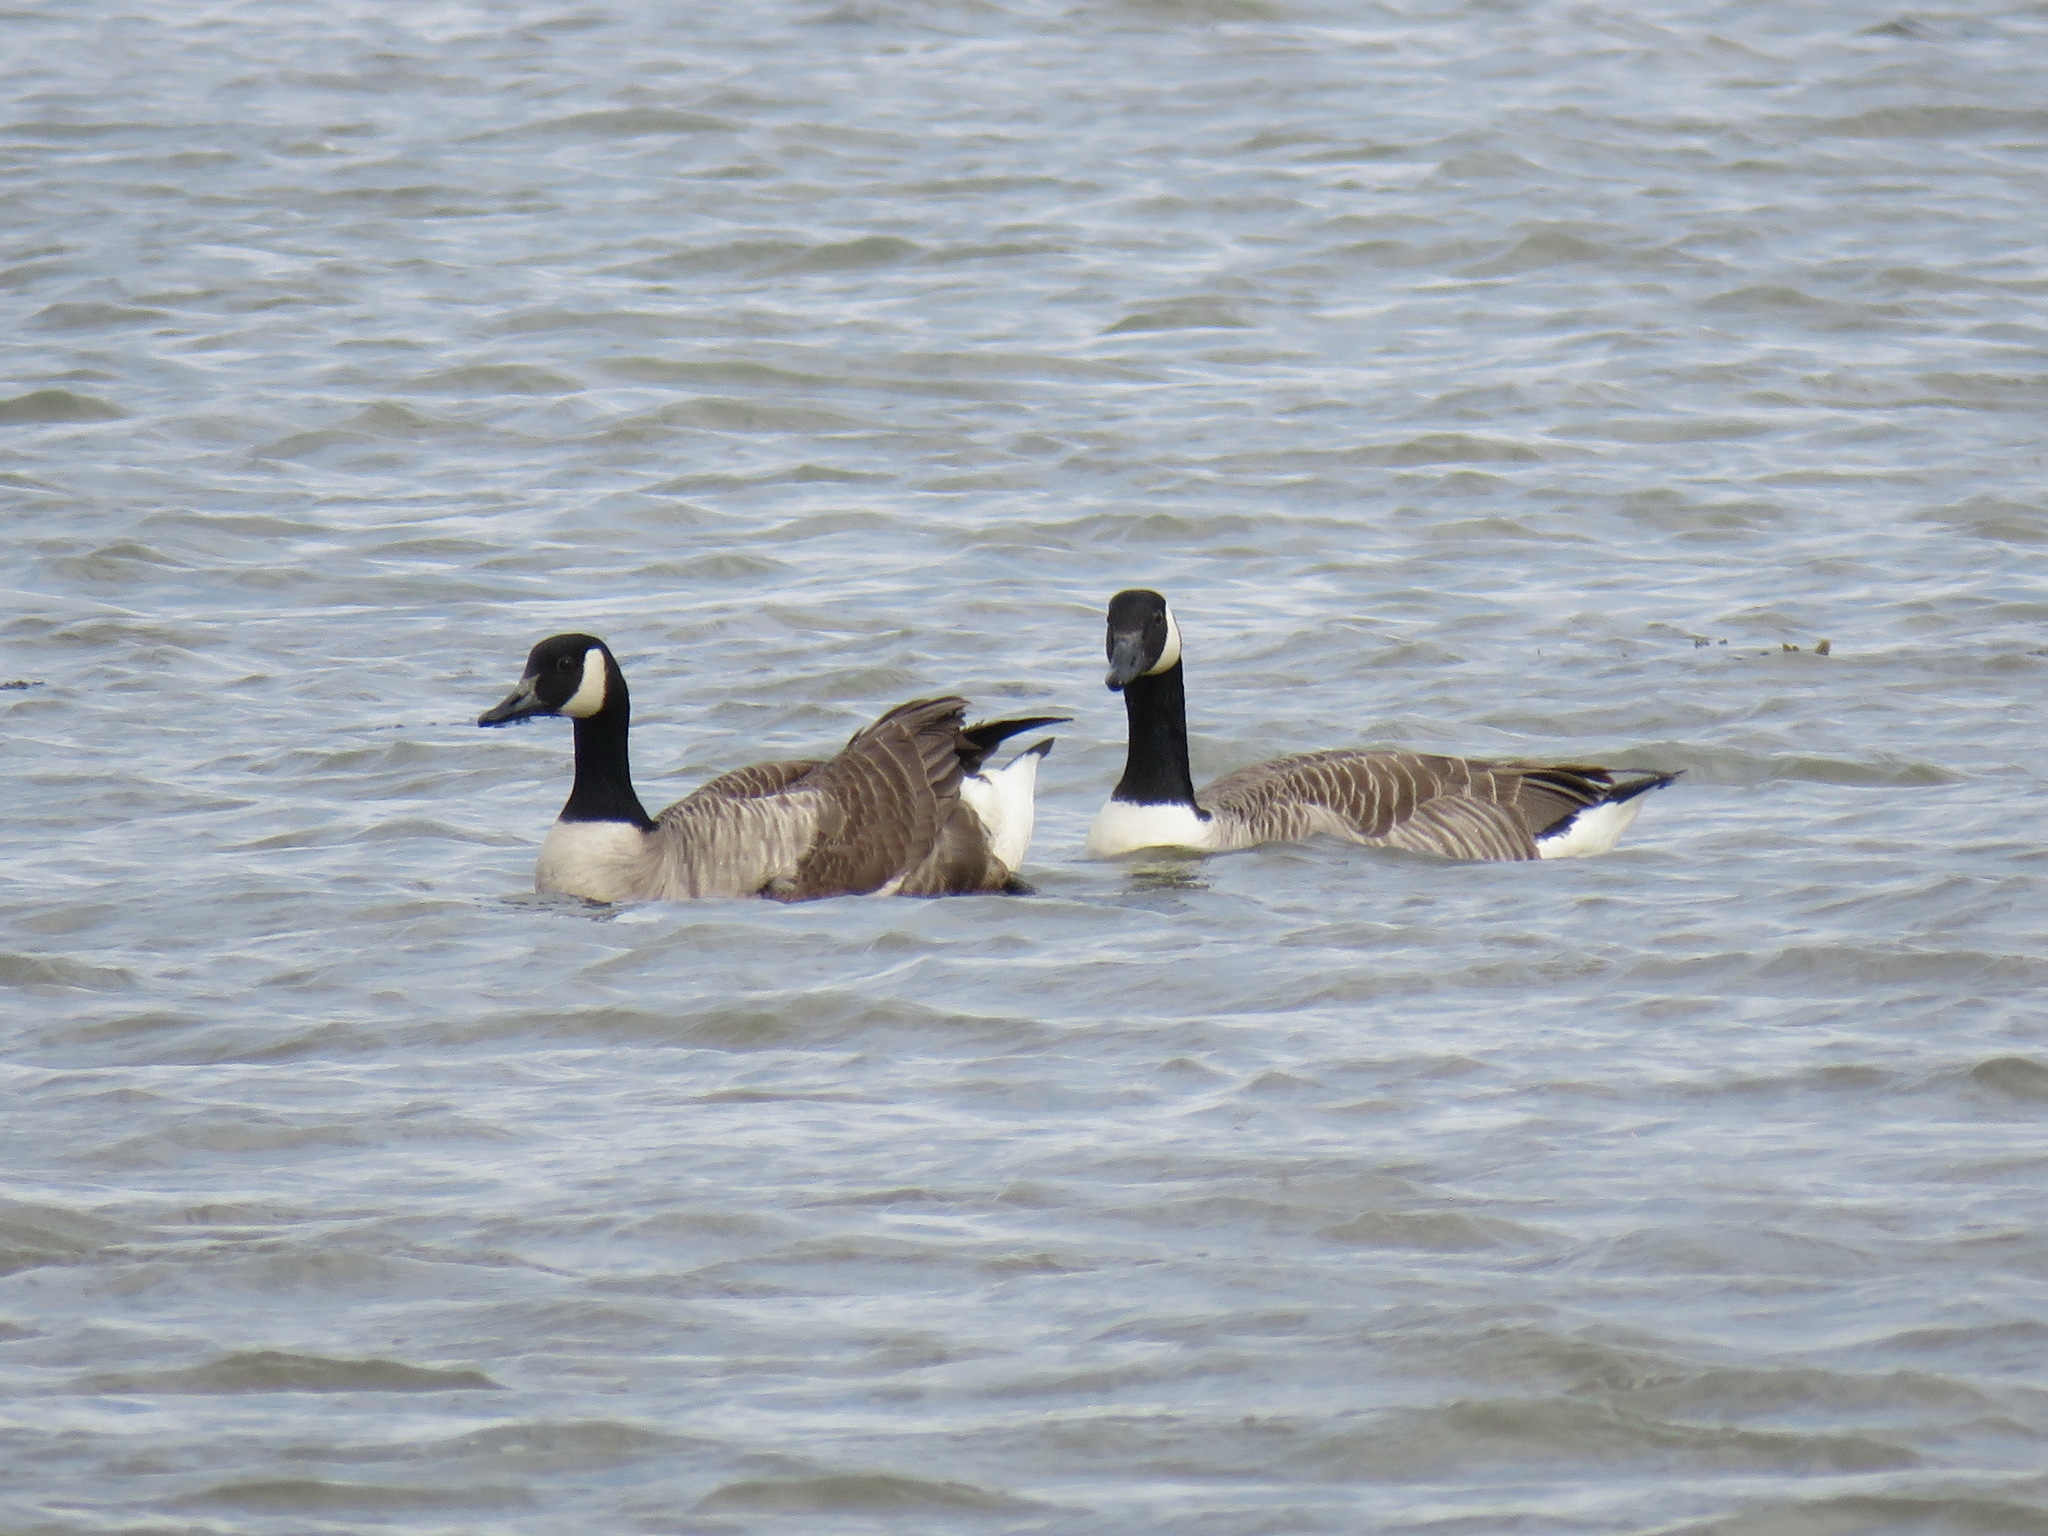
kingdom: Animalia
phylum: Chordata
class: Aves
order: Anseriformes
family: Anatidae
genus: Branta
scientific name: Branta canadensis
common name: Canada goose
